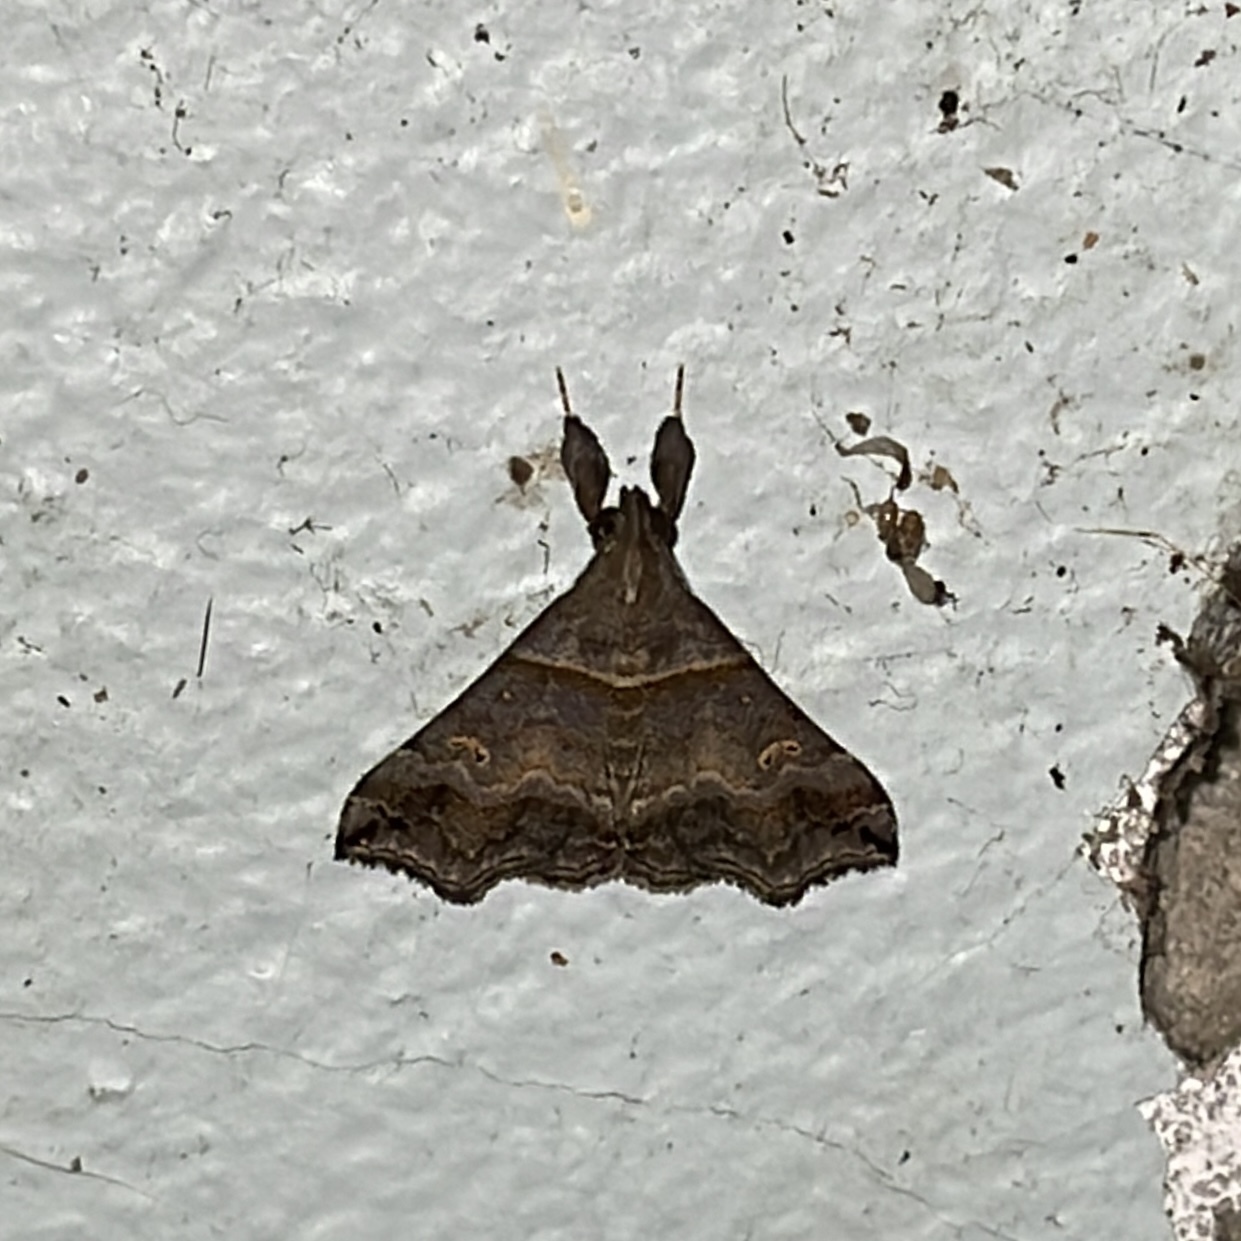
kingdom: Animalia
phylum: Arthropoda
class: Insecta
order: Lepidoptera
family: Erebidae
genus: Heterogramma
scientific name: Heterogramma circumflexalis
